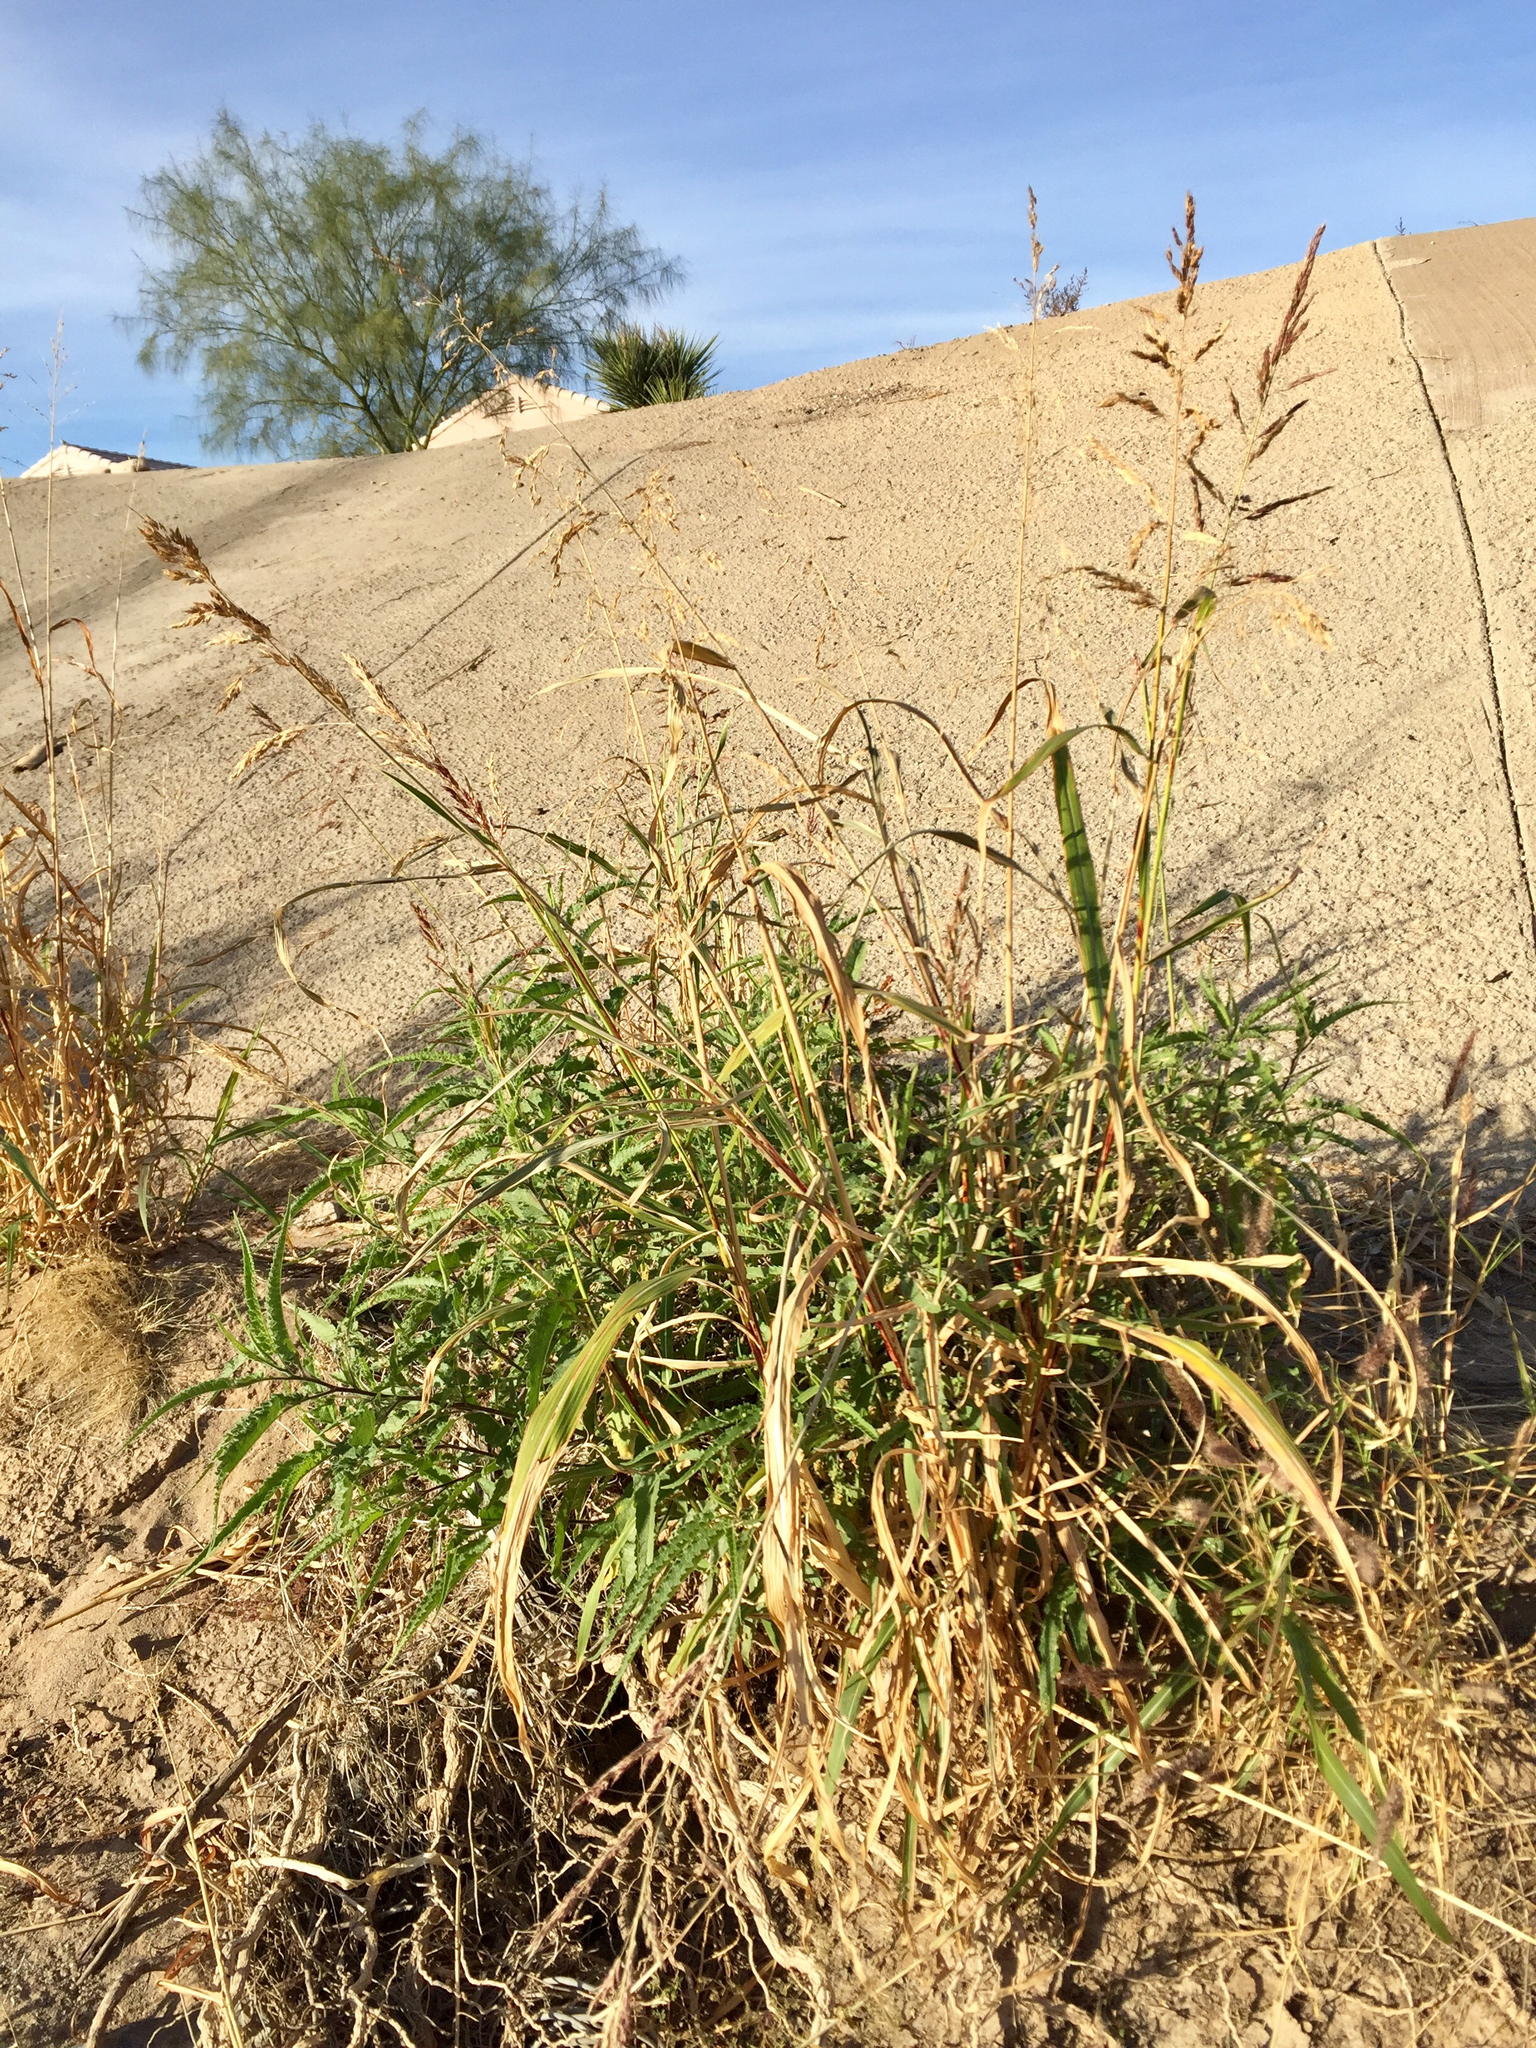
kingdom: Plantae
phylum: Tracheophyta
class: Liliopsida
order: Poales
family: Poaceae
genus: Sorghum
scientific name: Sorghum halepense
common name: Johnson-grass
